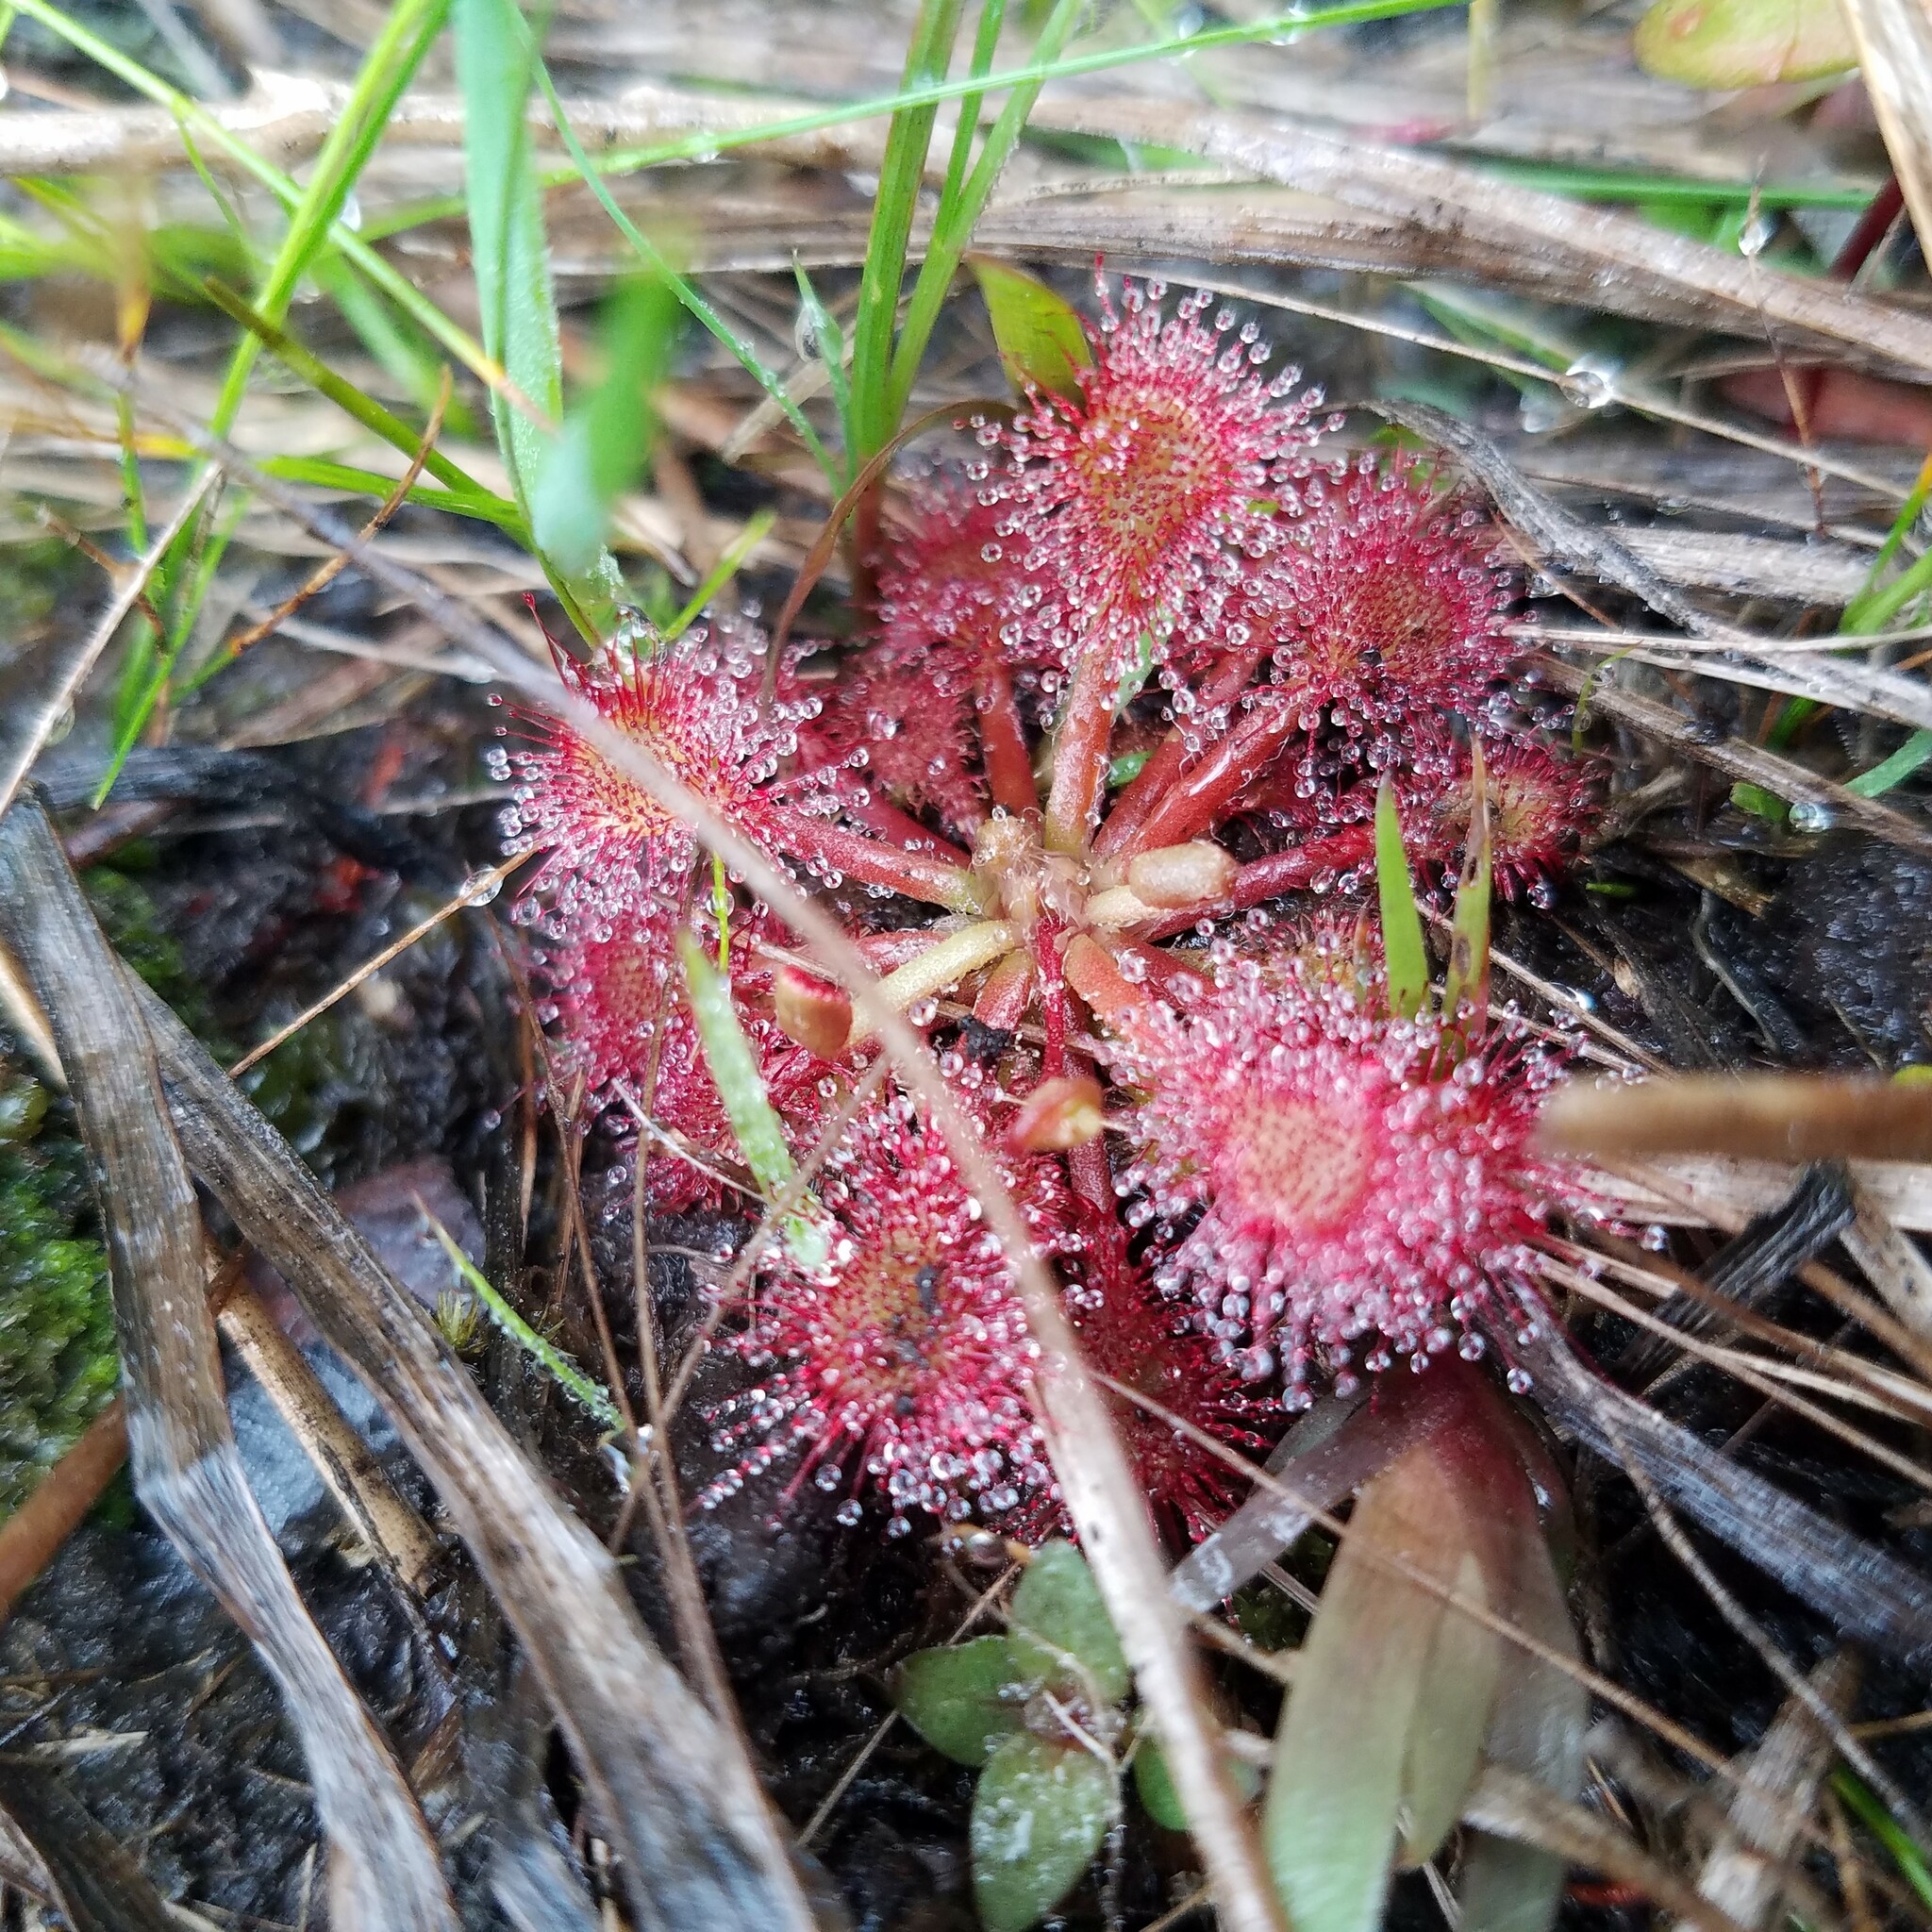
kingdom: Plantae
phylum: Tracheophyta
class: Magnoliopsida
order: Caryophyllales
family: Droseraceae
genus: Drosera
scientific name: Drosera capillaris
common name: Pink sundew
